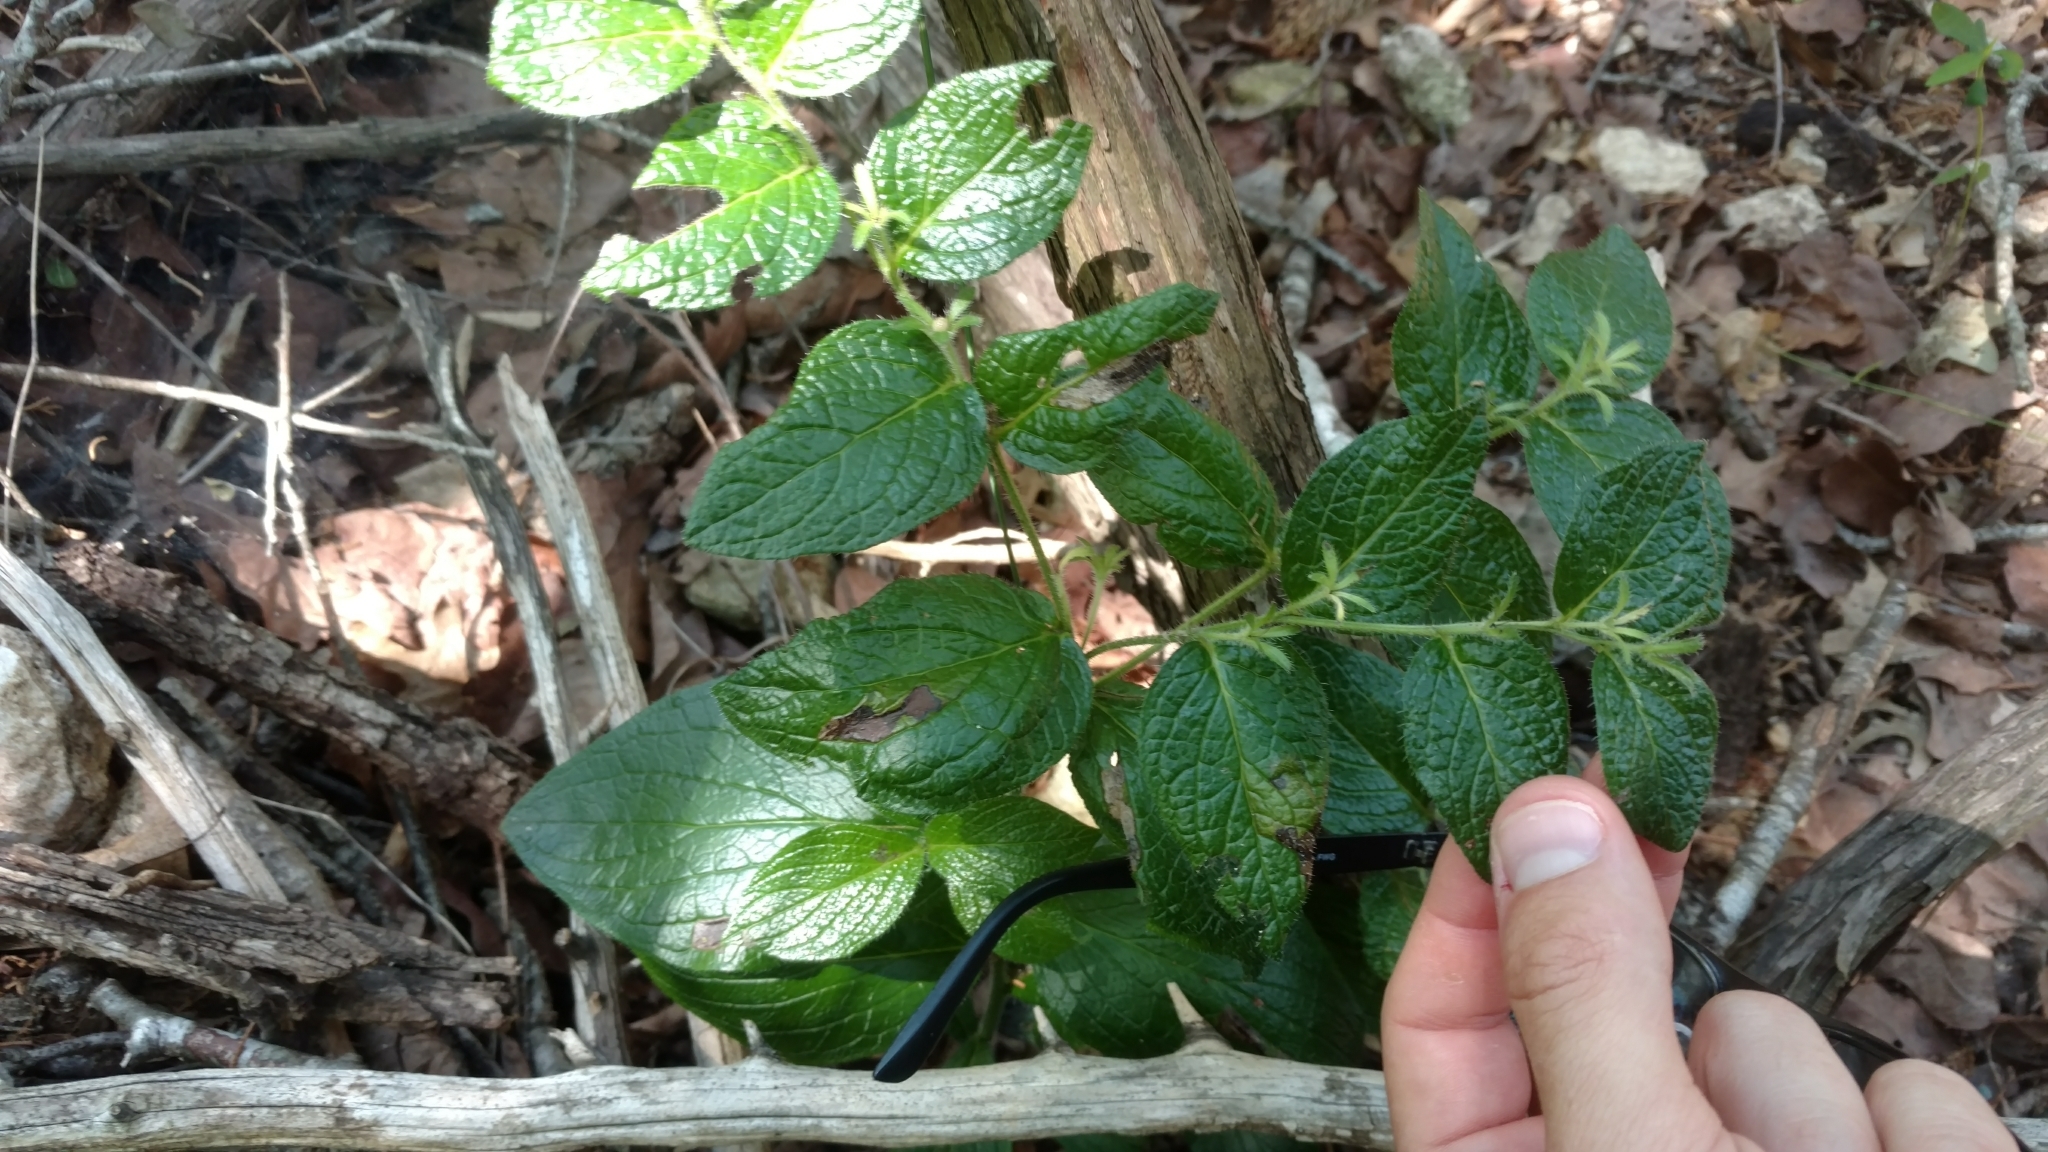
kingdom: Plantae
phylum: Tracheophyta
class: Magnoliopsida
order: Boraginales
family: Boraginaceae
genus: Lithospermum
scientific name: Lithospermum helleri
